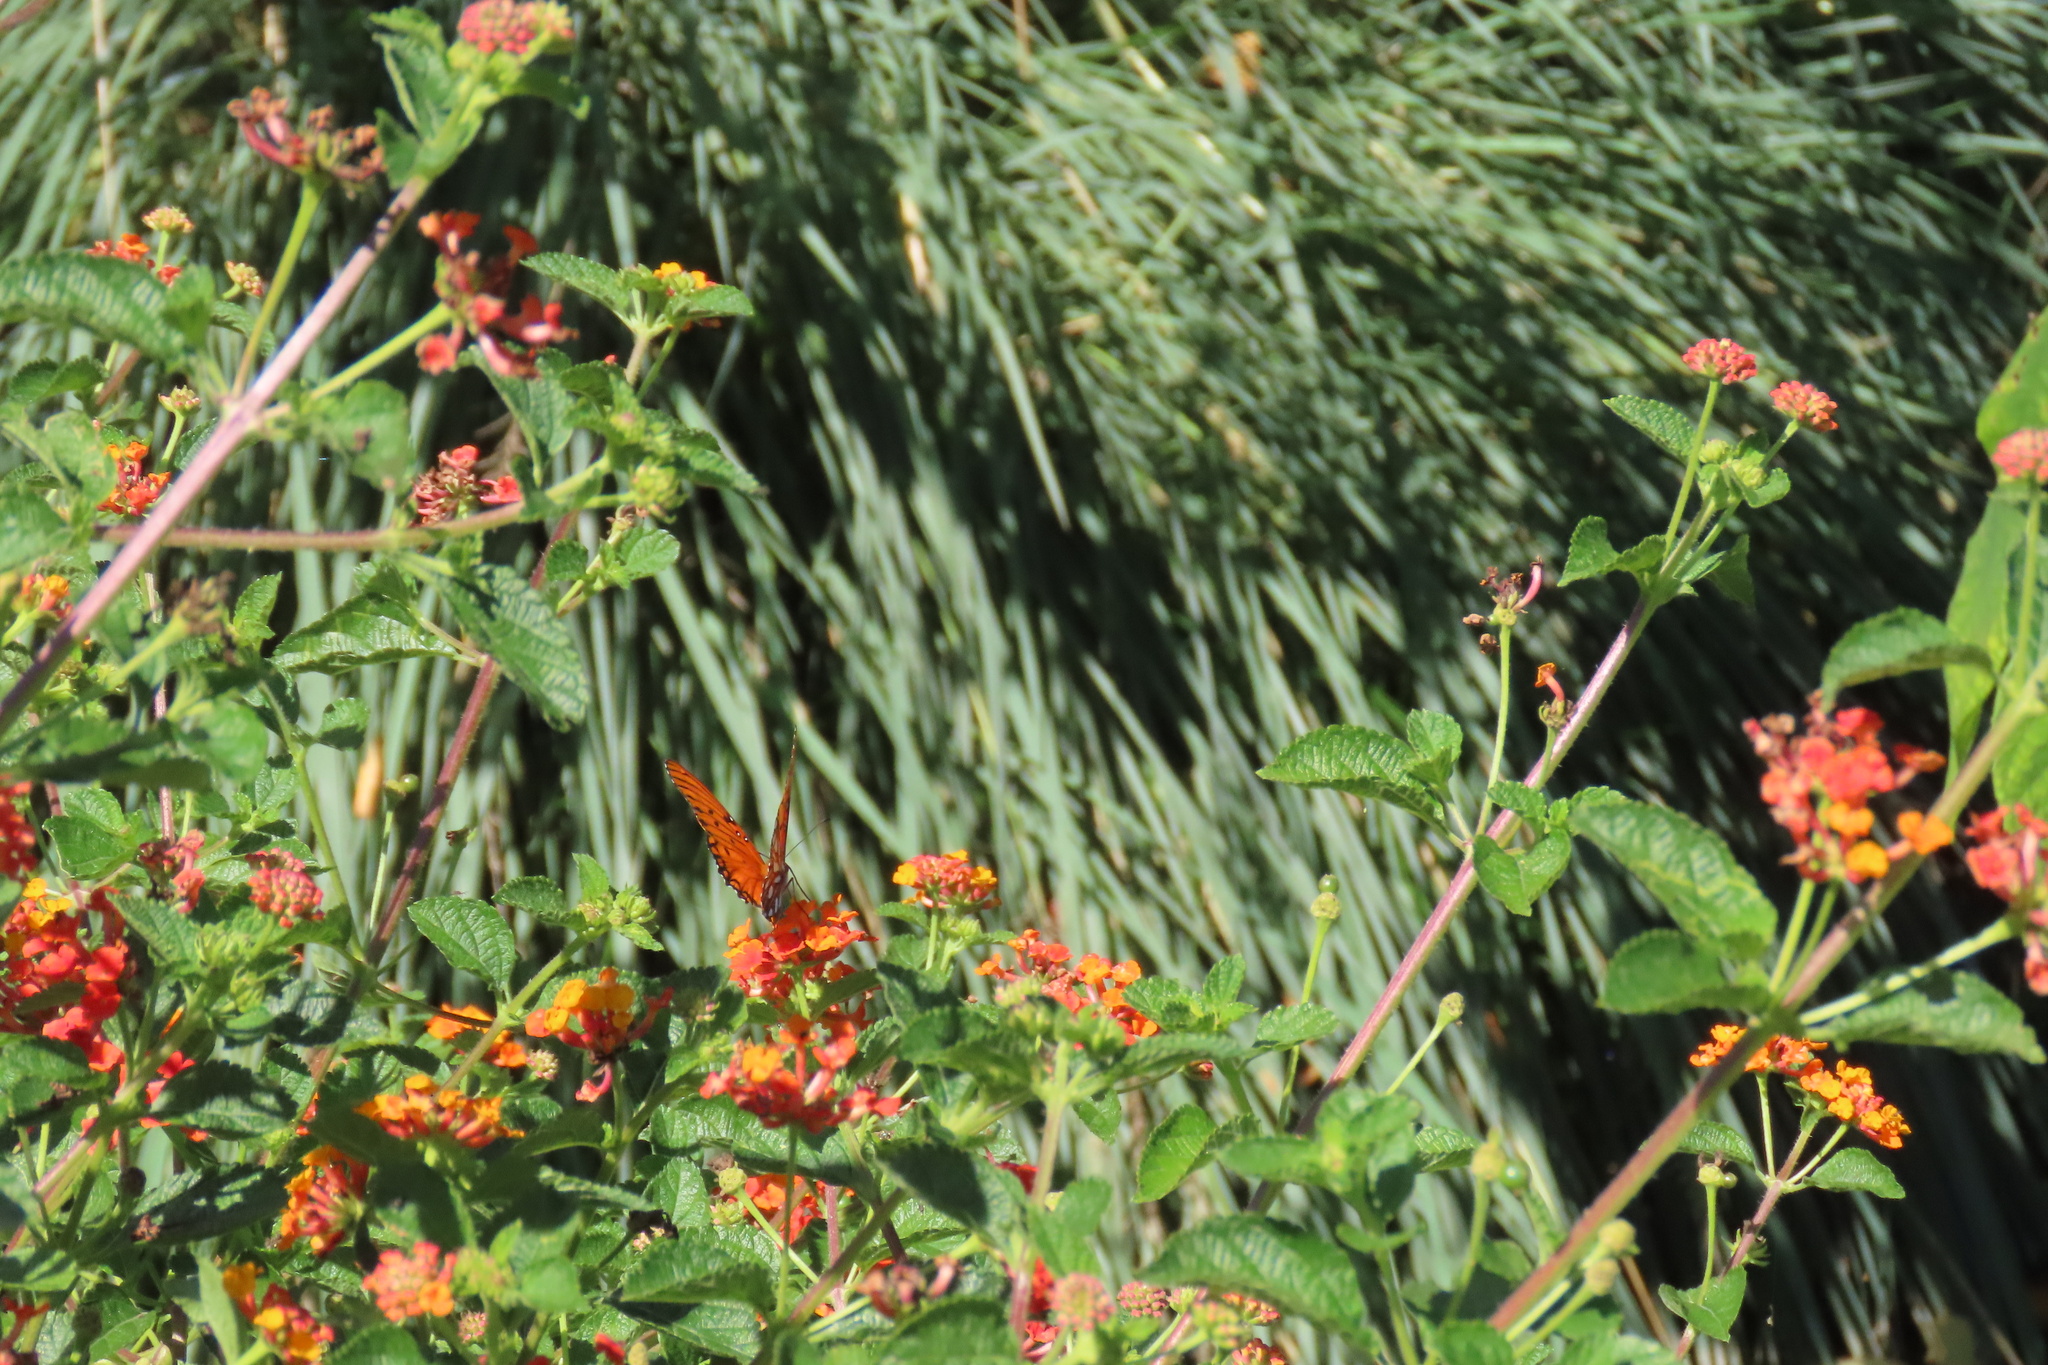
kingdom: Animalia
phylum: Arthropoda
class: Insecta
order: Lepidoptera
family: Nymphalidae
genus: Dione
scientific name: Dione vanillae
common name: Gulf fritillary
